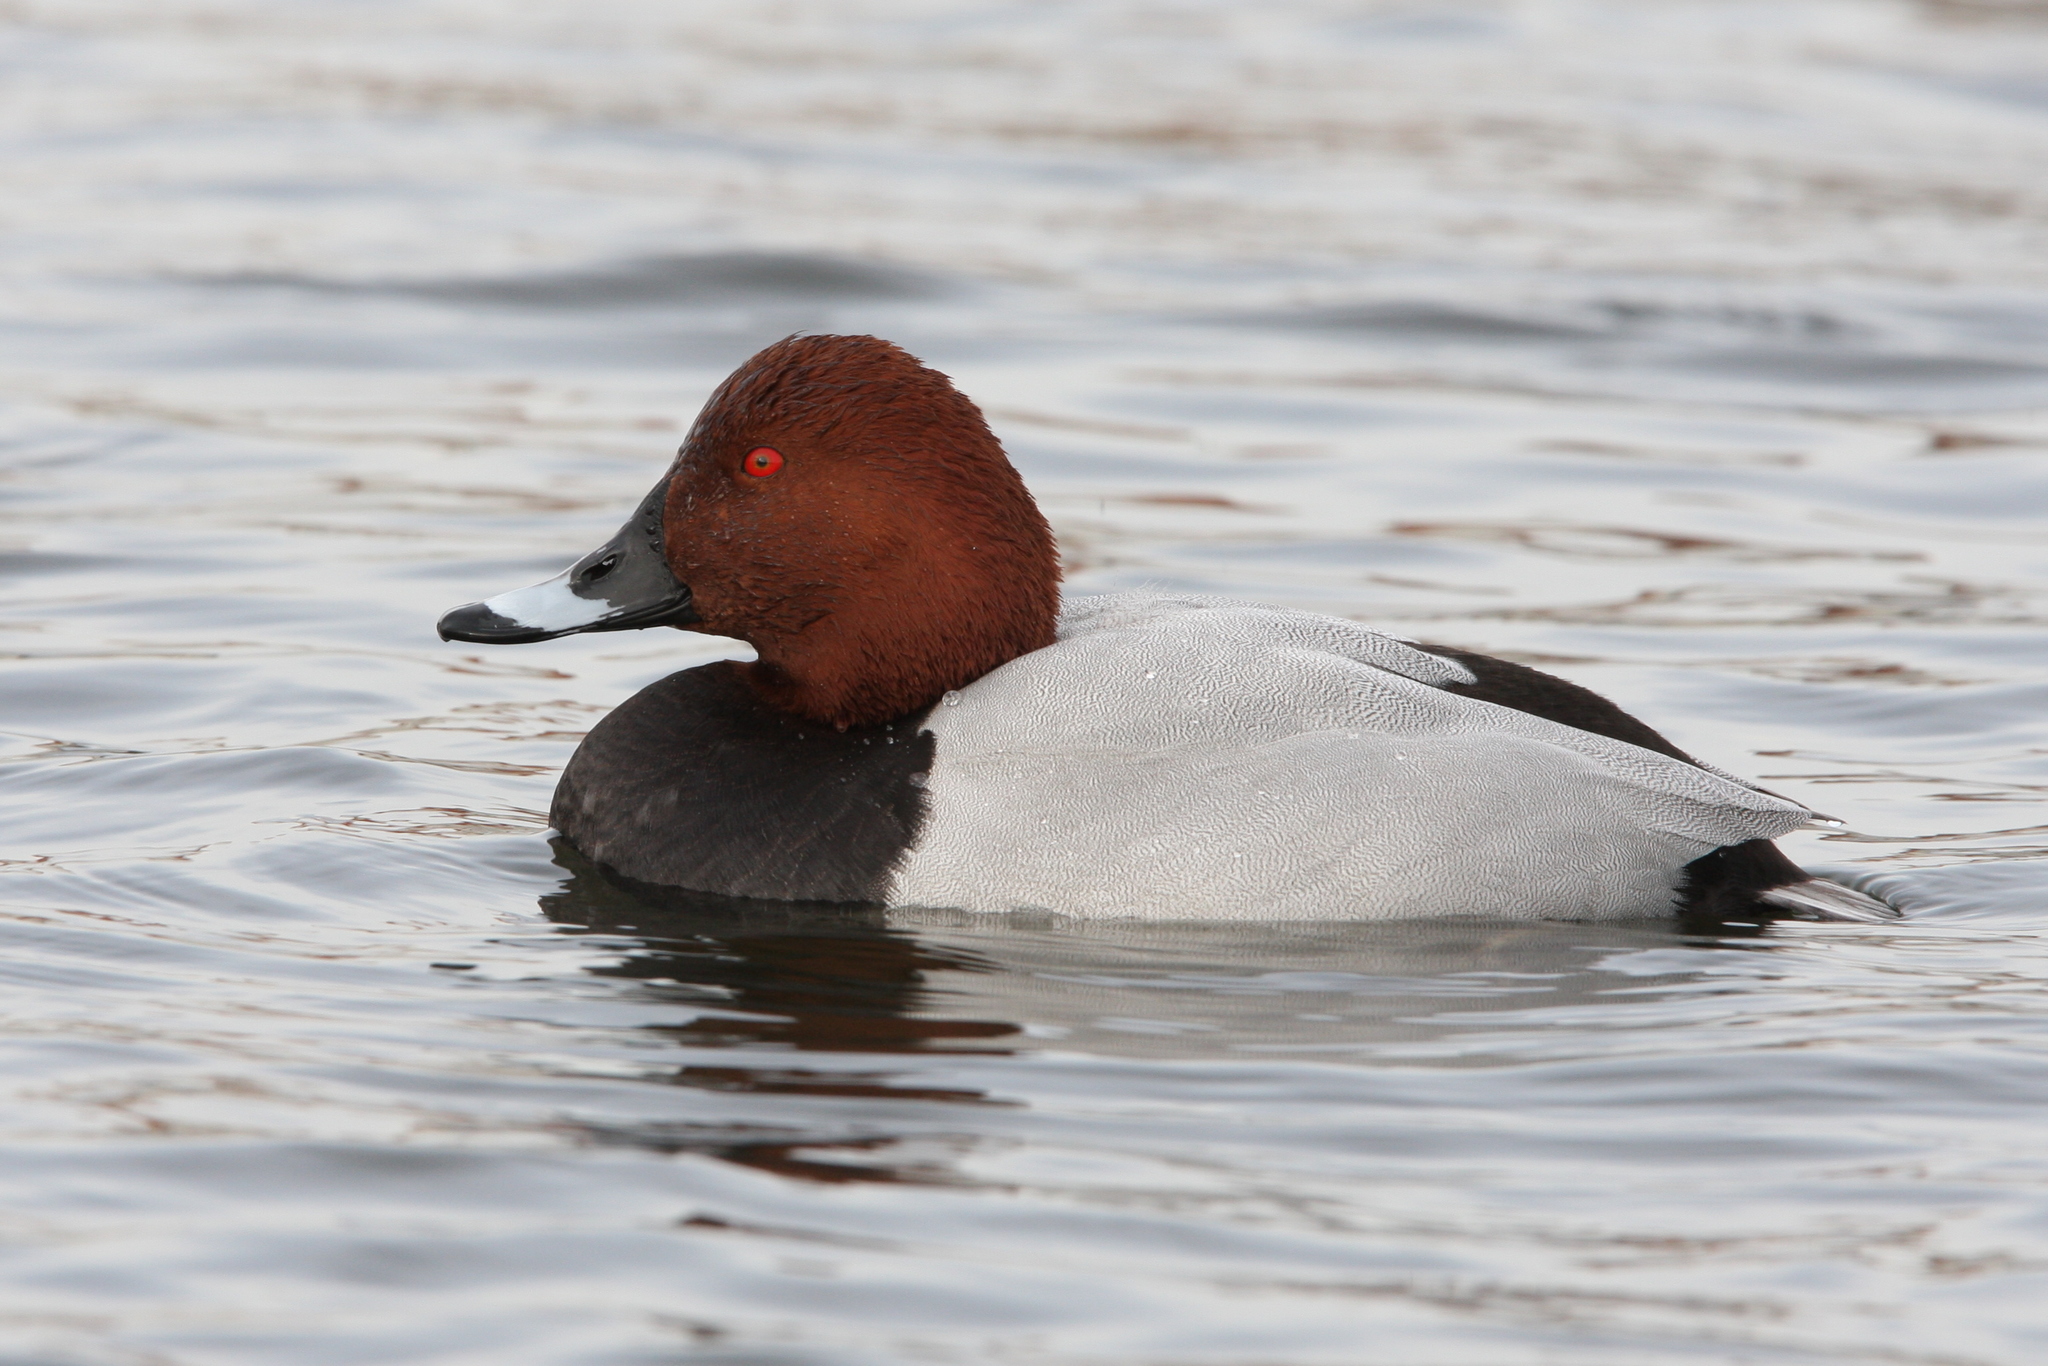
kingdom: Animalia
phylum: Chordata
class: Aves
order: Anseriformes
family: Anatidae
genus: Aythya
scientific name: Aythya ferina
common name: Common pochard
